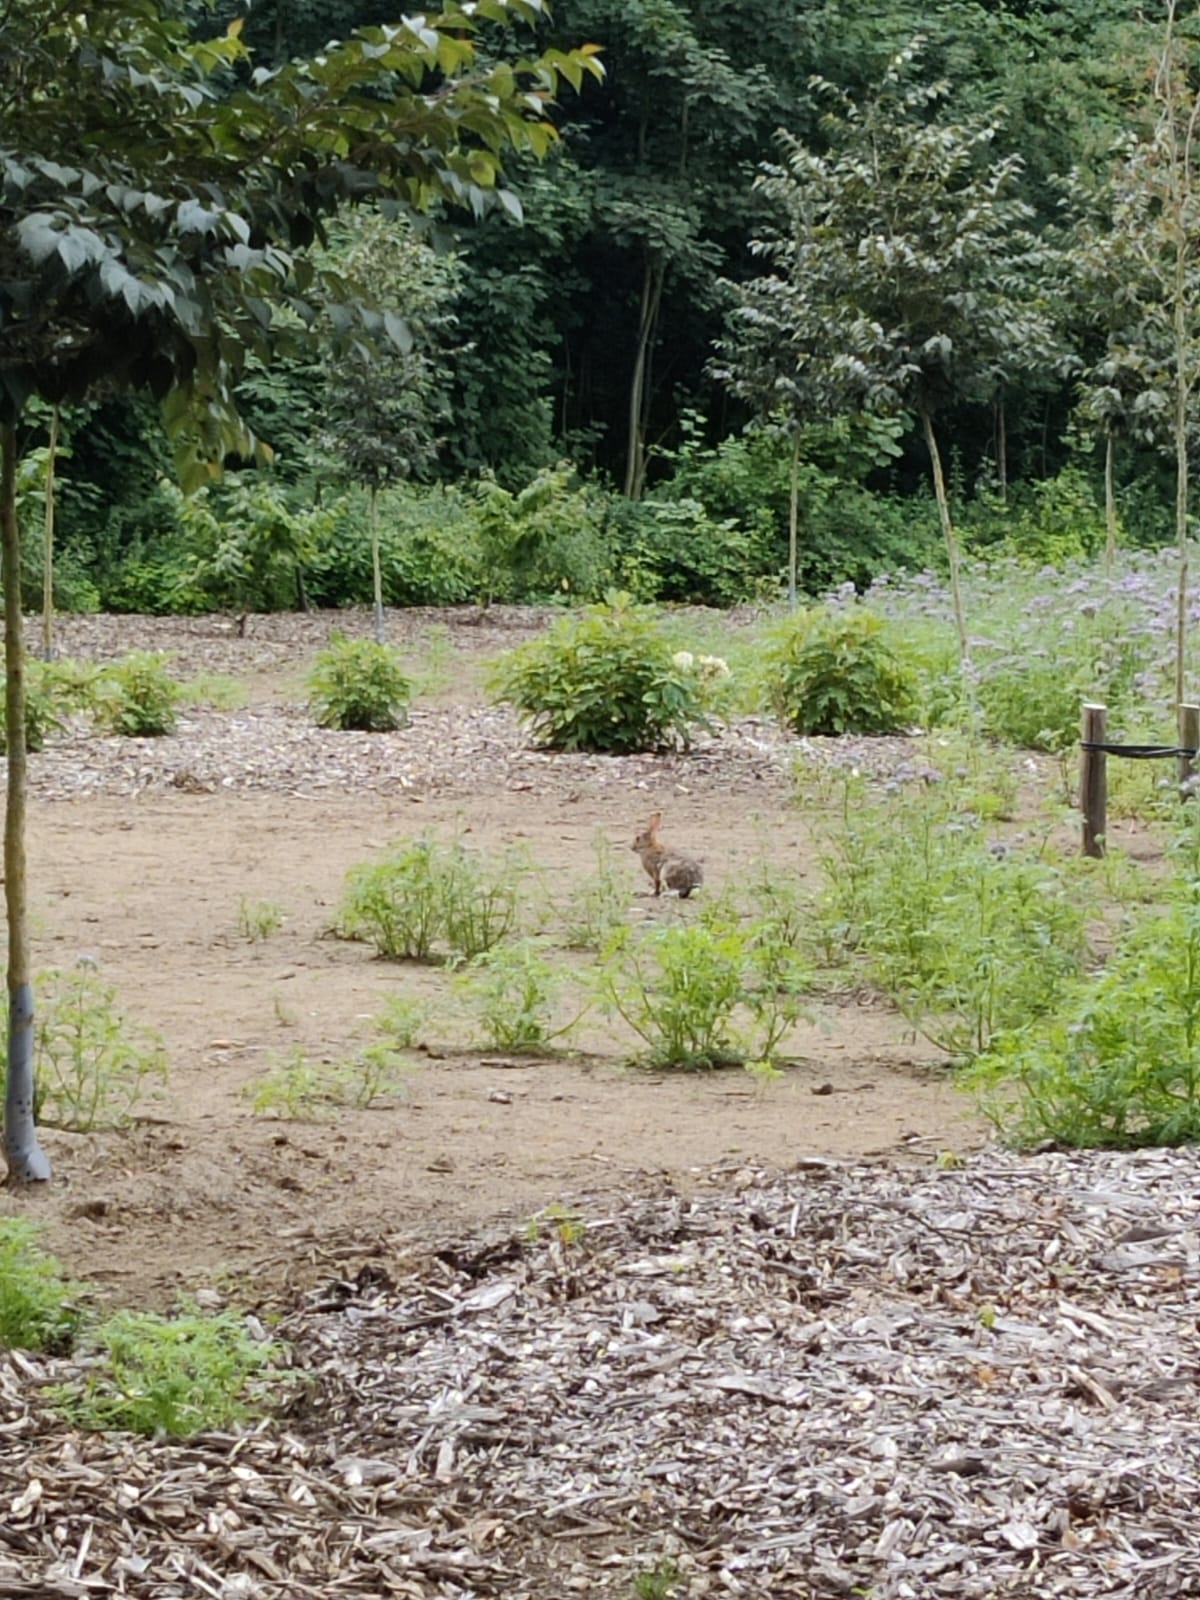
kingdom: Animalia
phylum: Chordata
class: Mammalia
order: Lagomorpha
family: Leporidae
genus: Oryctolagus
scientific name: Oryctolagus cuniculus
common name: European rabbit
